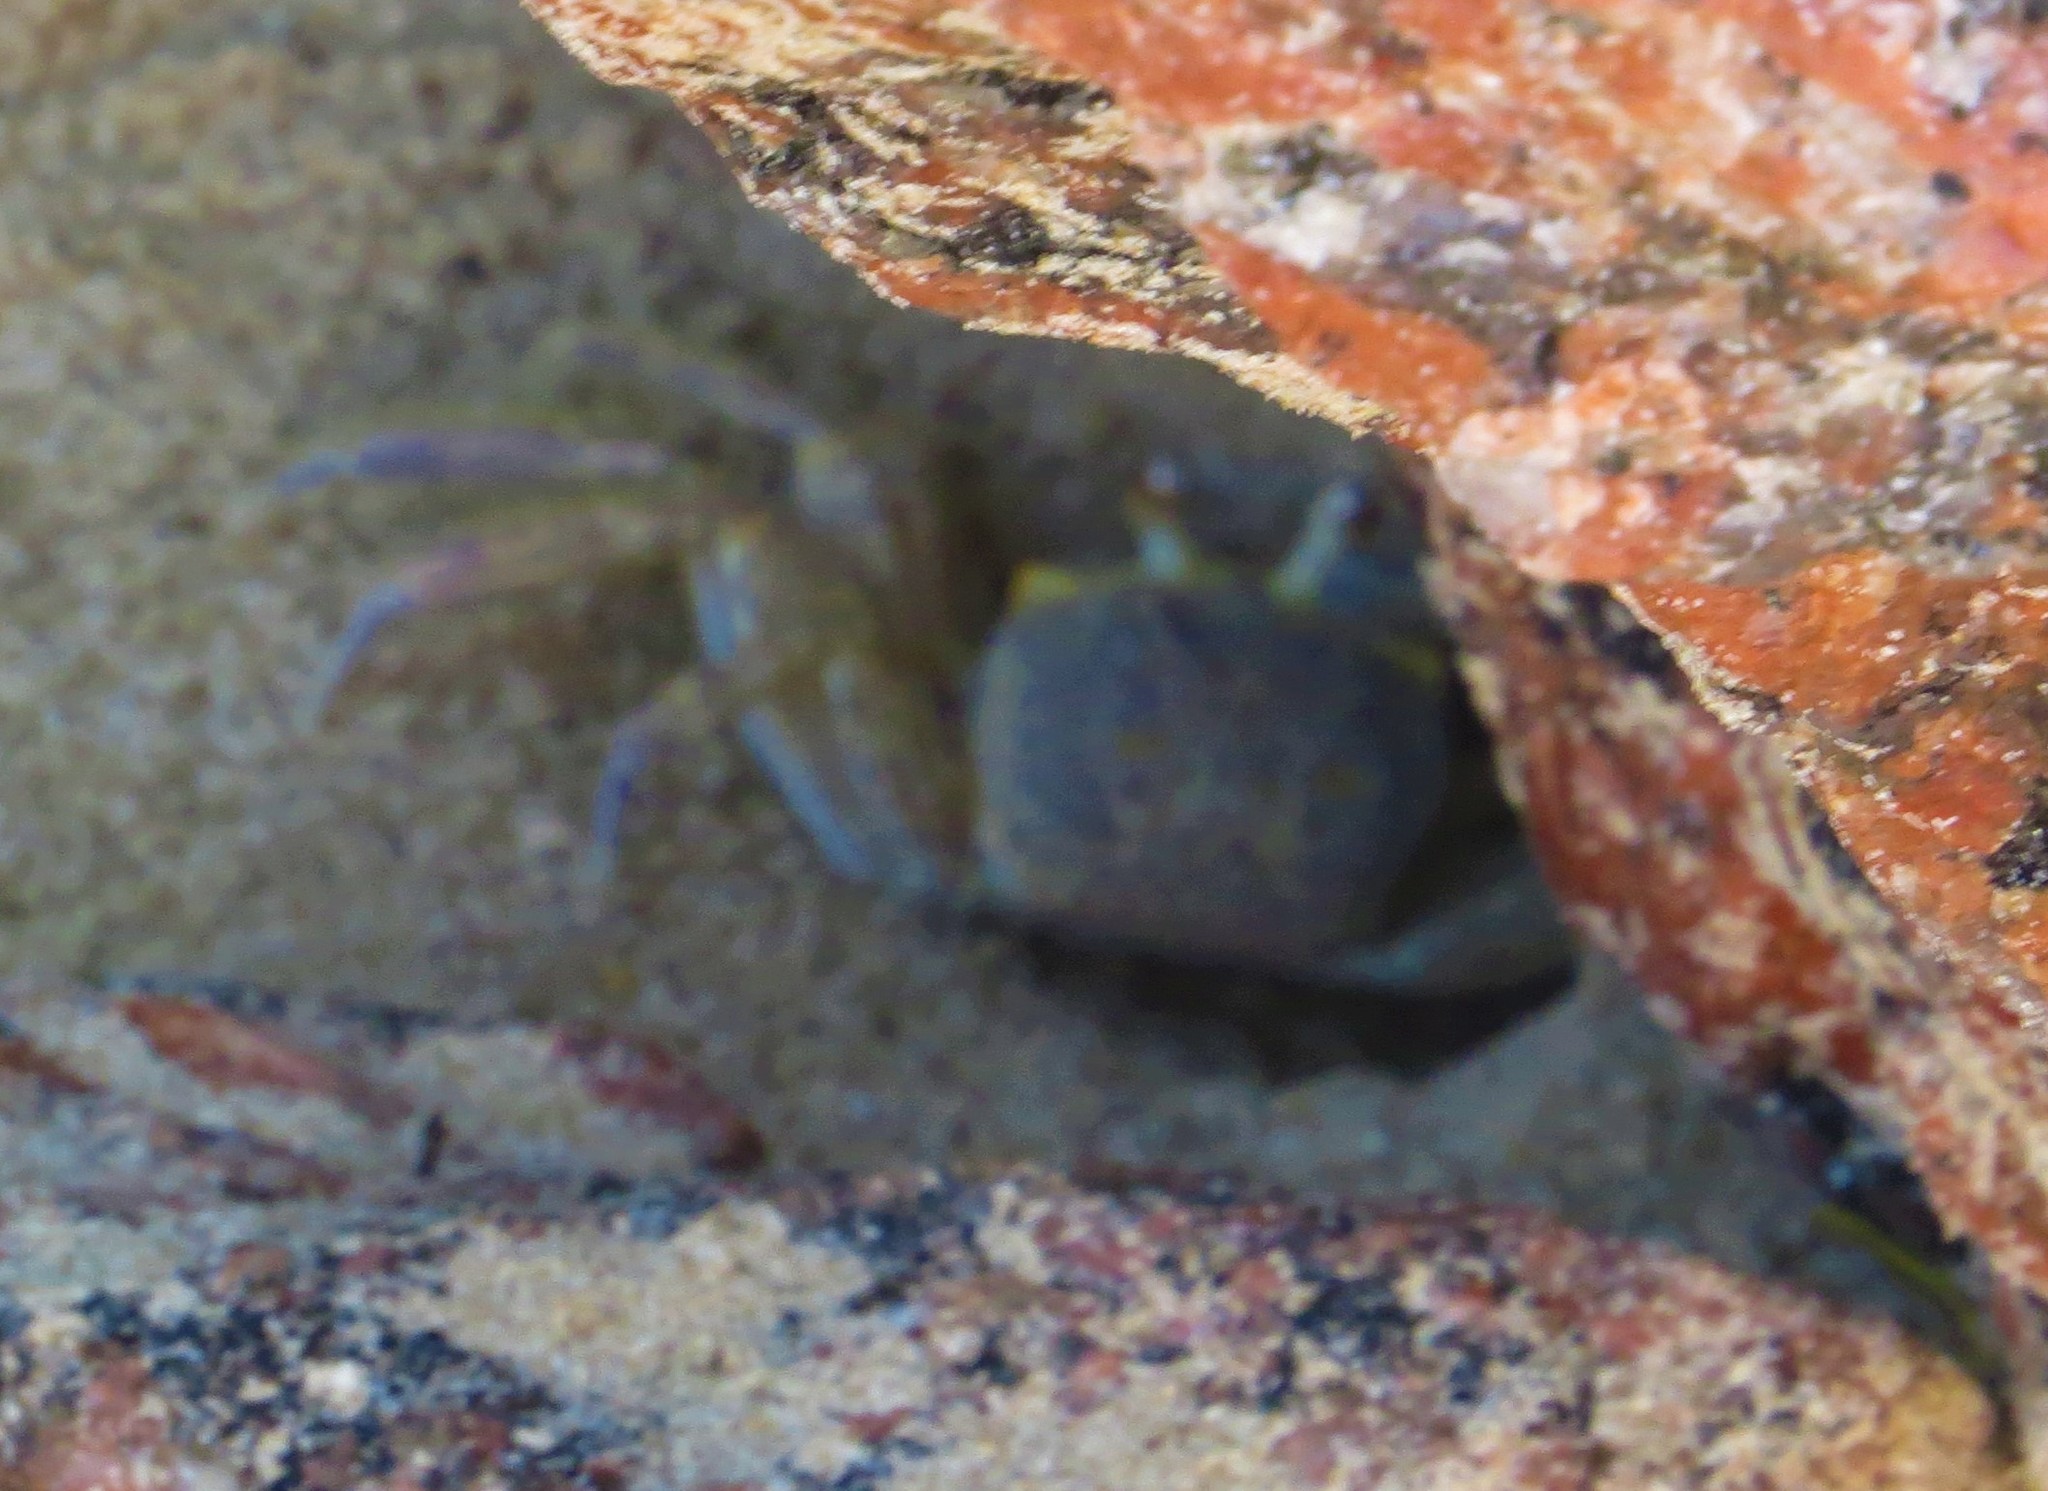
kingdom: Animalia
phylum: Arthropoda
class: Malacostraca
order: Decapoda
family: Ocypodidae
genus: Ocypode
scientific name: Ocypode quadrata
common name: Ghost crab
